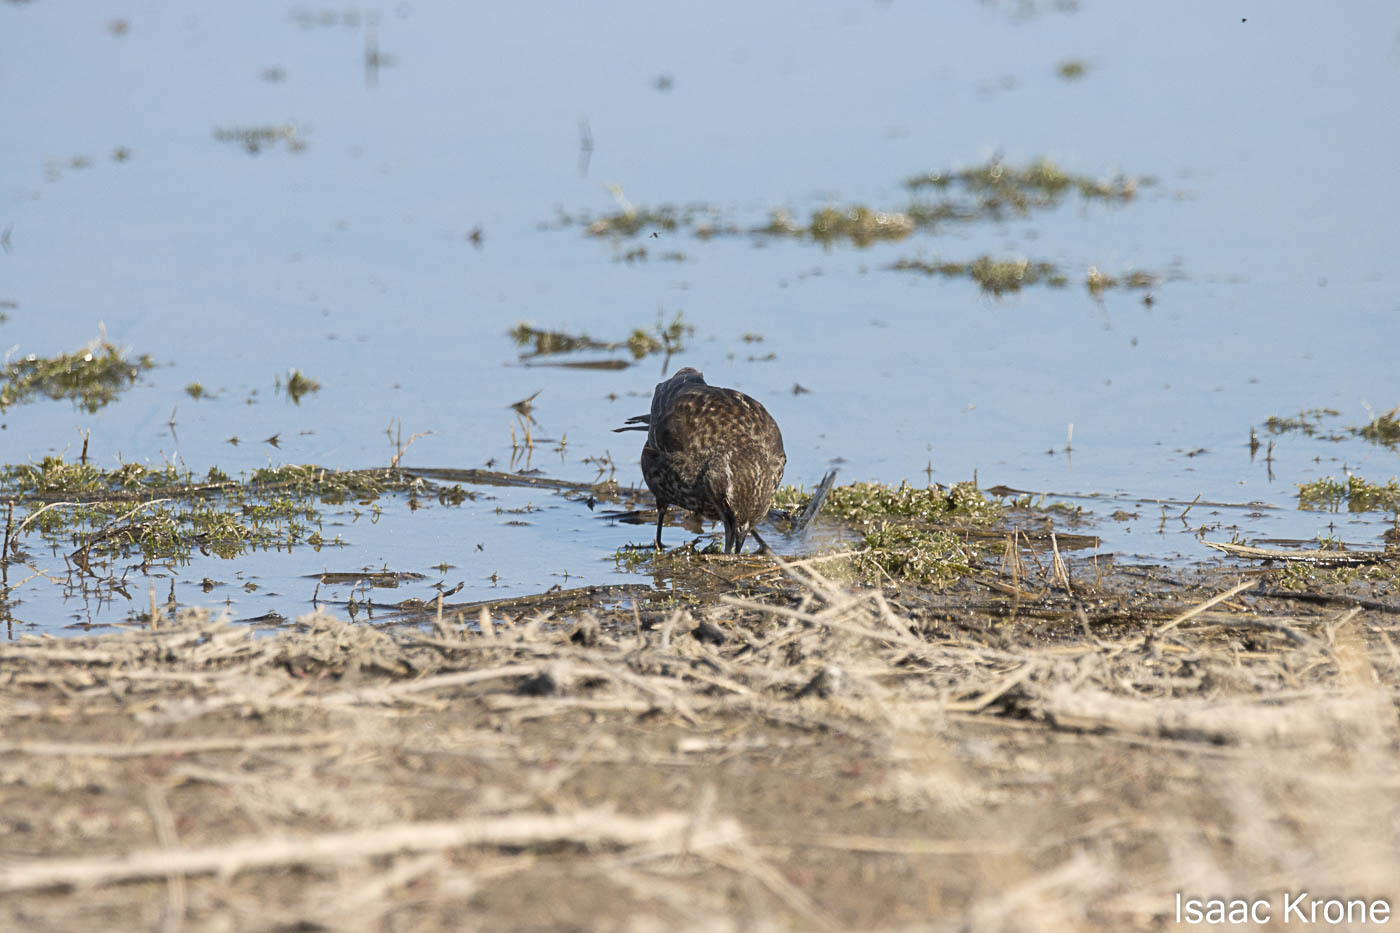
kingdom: Animalia
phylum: Chordata
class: Aves
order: Passeriformes
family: Icteridae
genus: Agelaius
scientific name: Agelaius phoeniceus
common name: Red-winged blackbird
